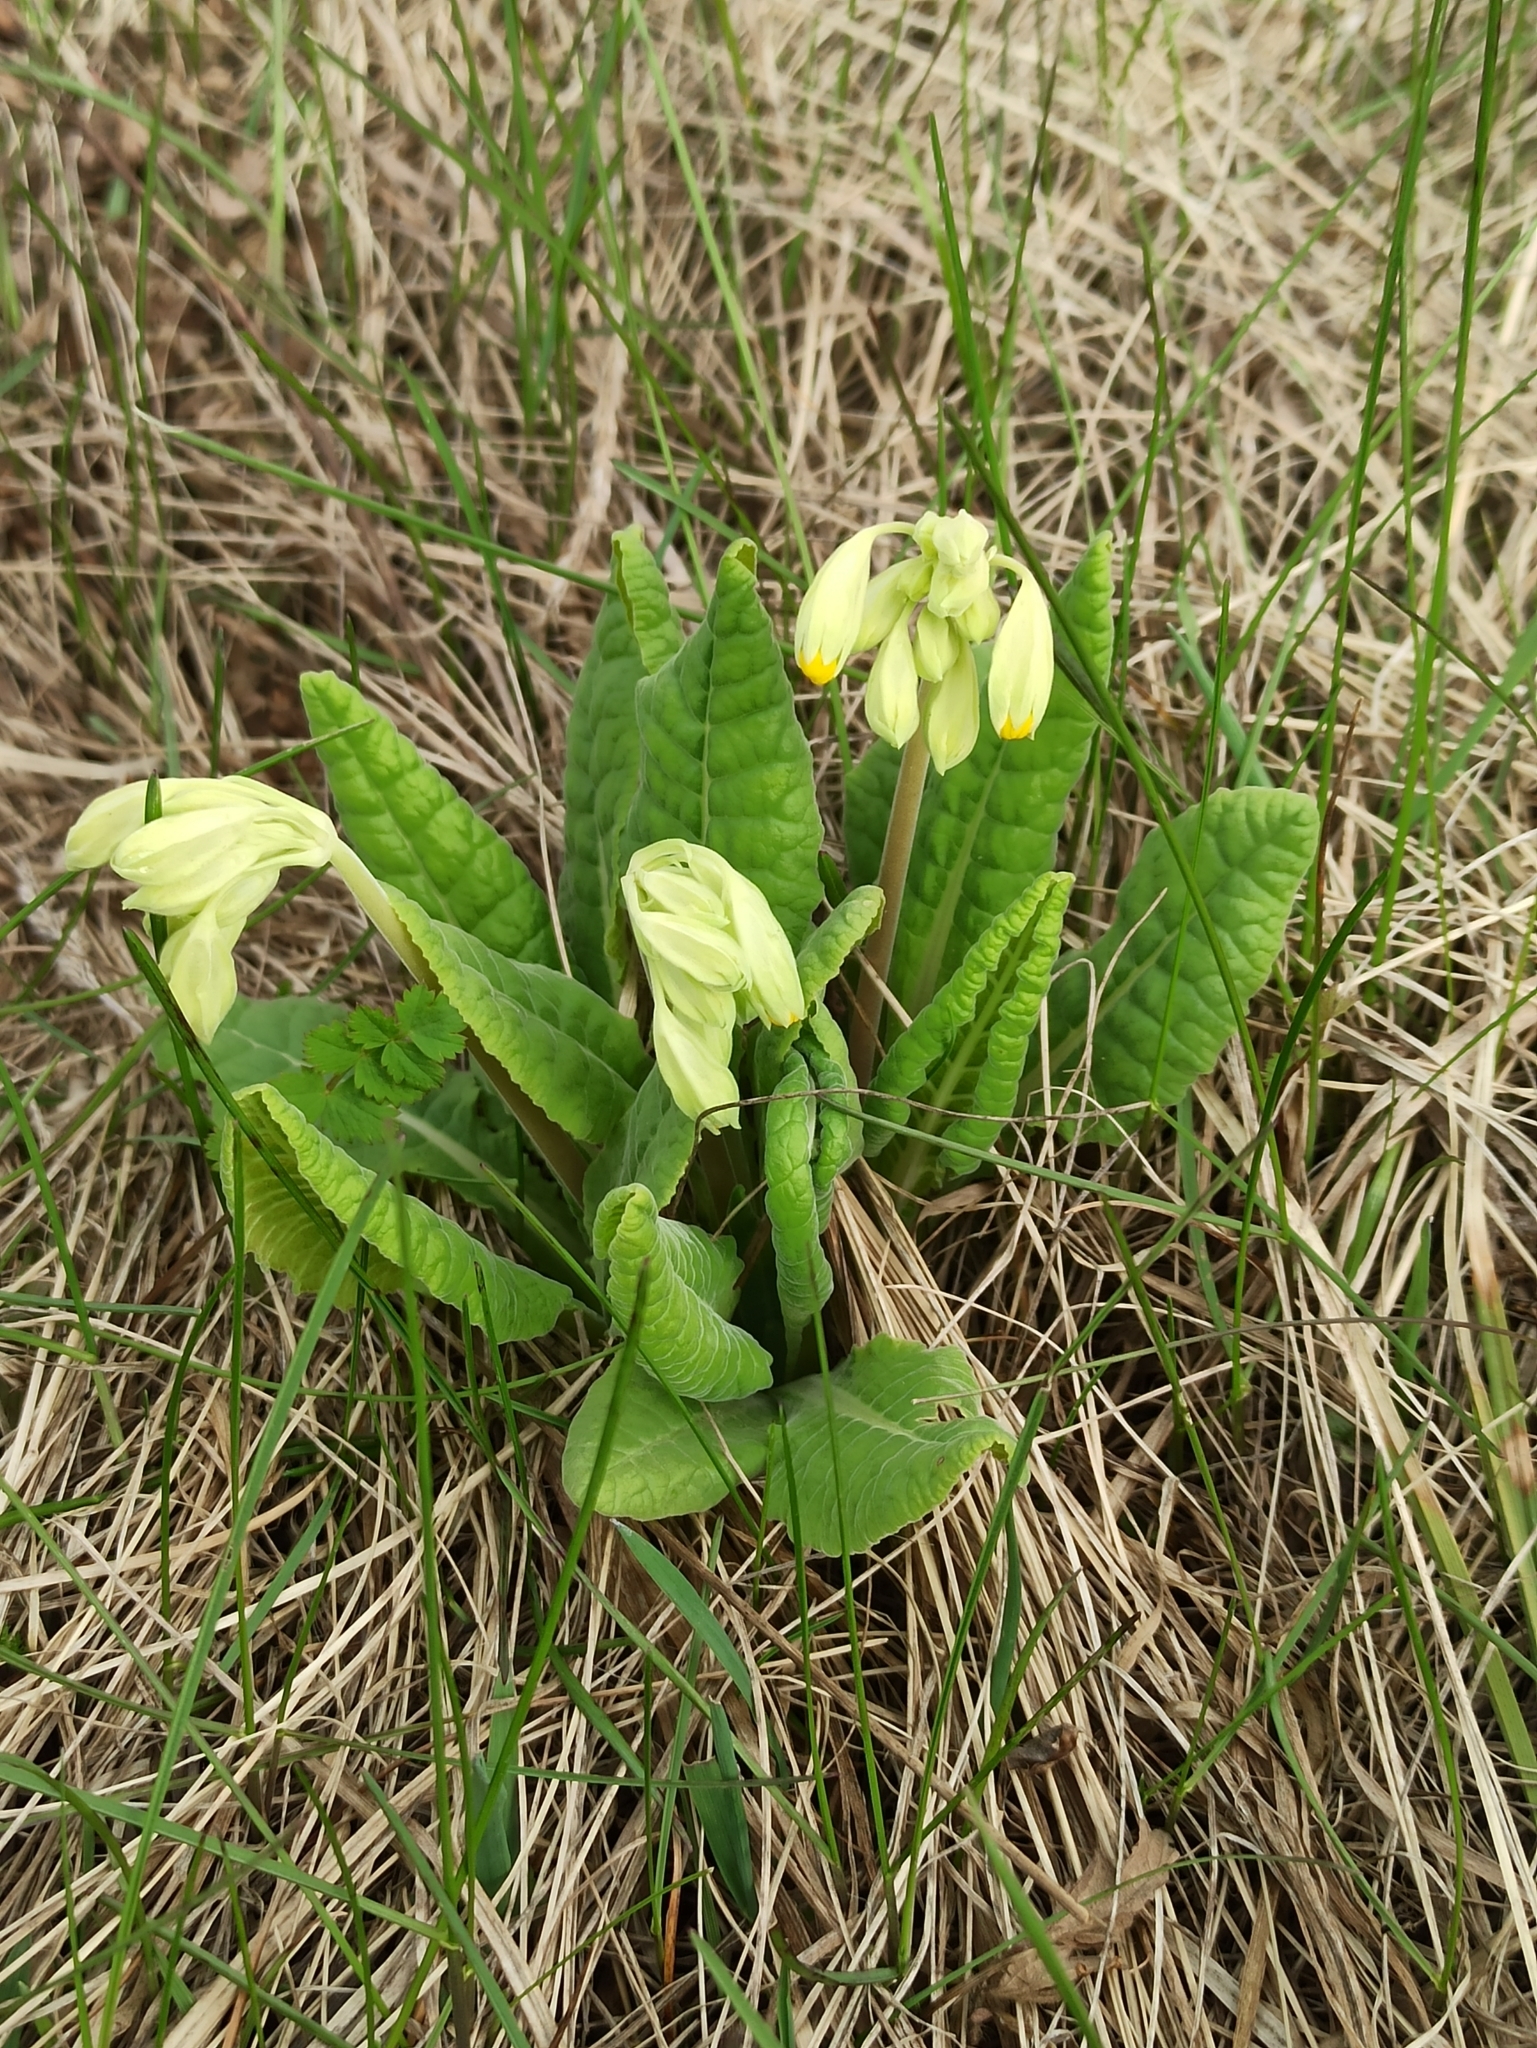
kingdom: Plantae
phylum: Tracheophyta
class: Magnoliopsida
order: Ericales
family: Primulaceae
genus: Primula
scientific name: Primula veris
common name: Cowslip
